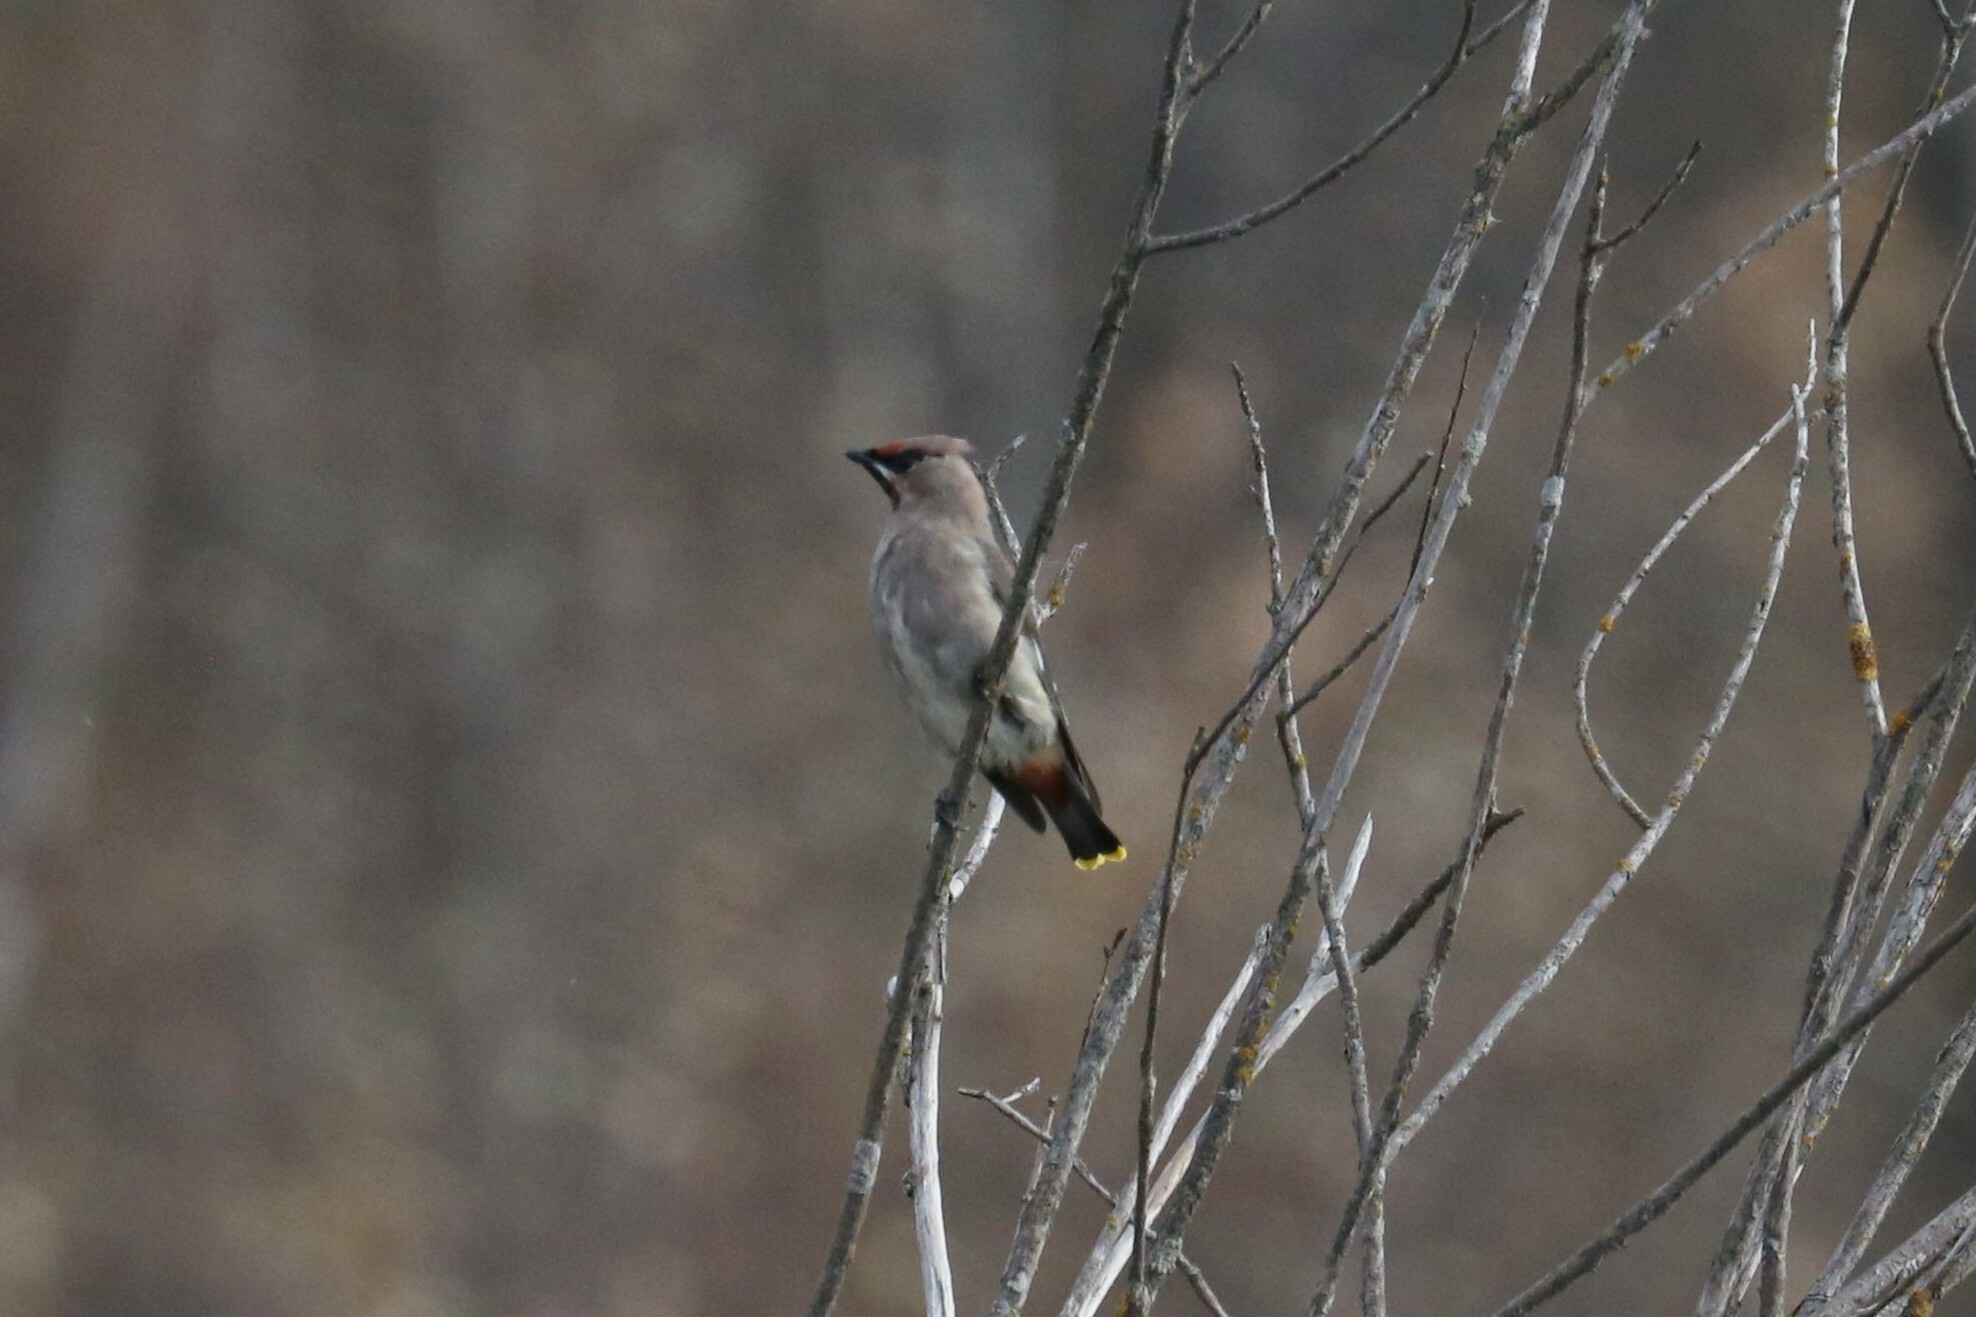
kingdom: Animalia
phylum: Chordata
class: Aves
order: Passeriformes
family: Bombycillidae
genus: Bombycilla
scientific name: Bombycilla garrulus
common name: Bohemian waxwing
